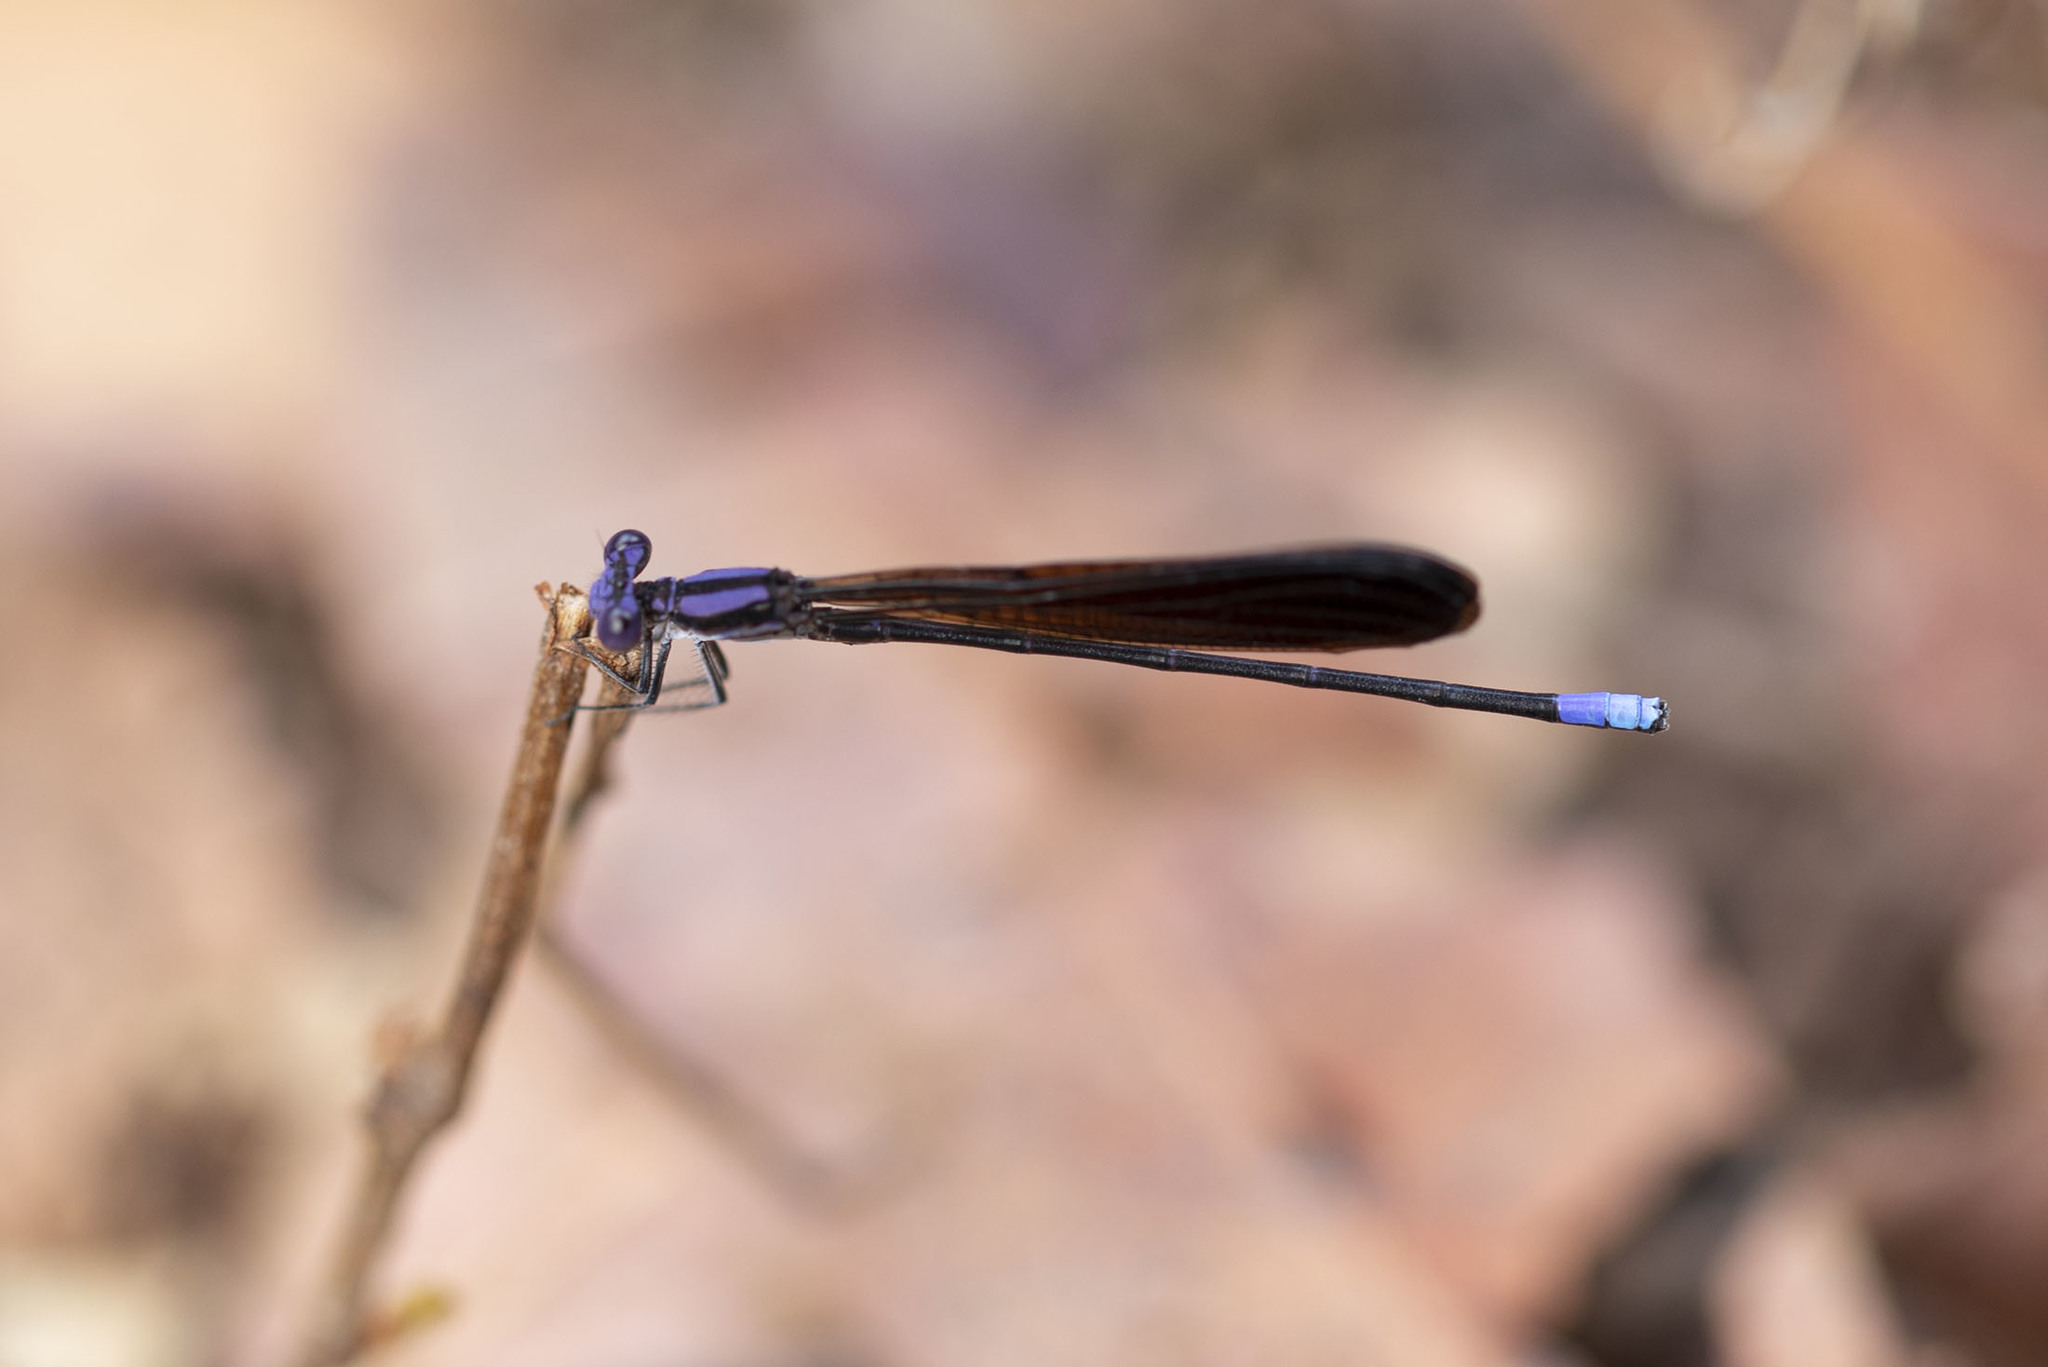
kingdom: Animalia
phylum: Arthropoda
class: Insecta
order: Odonata
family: Coenagrionidae
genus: Argia
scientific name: Argia fumipennis
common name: Variable dancer
